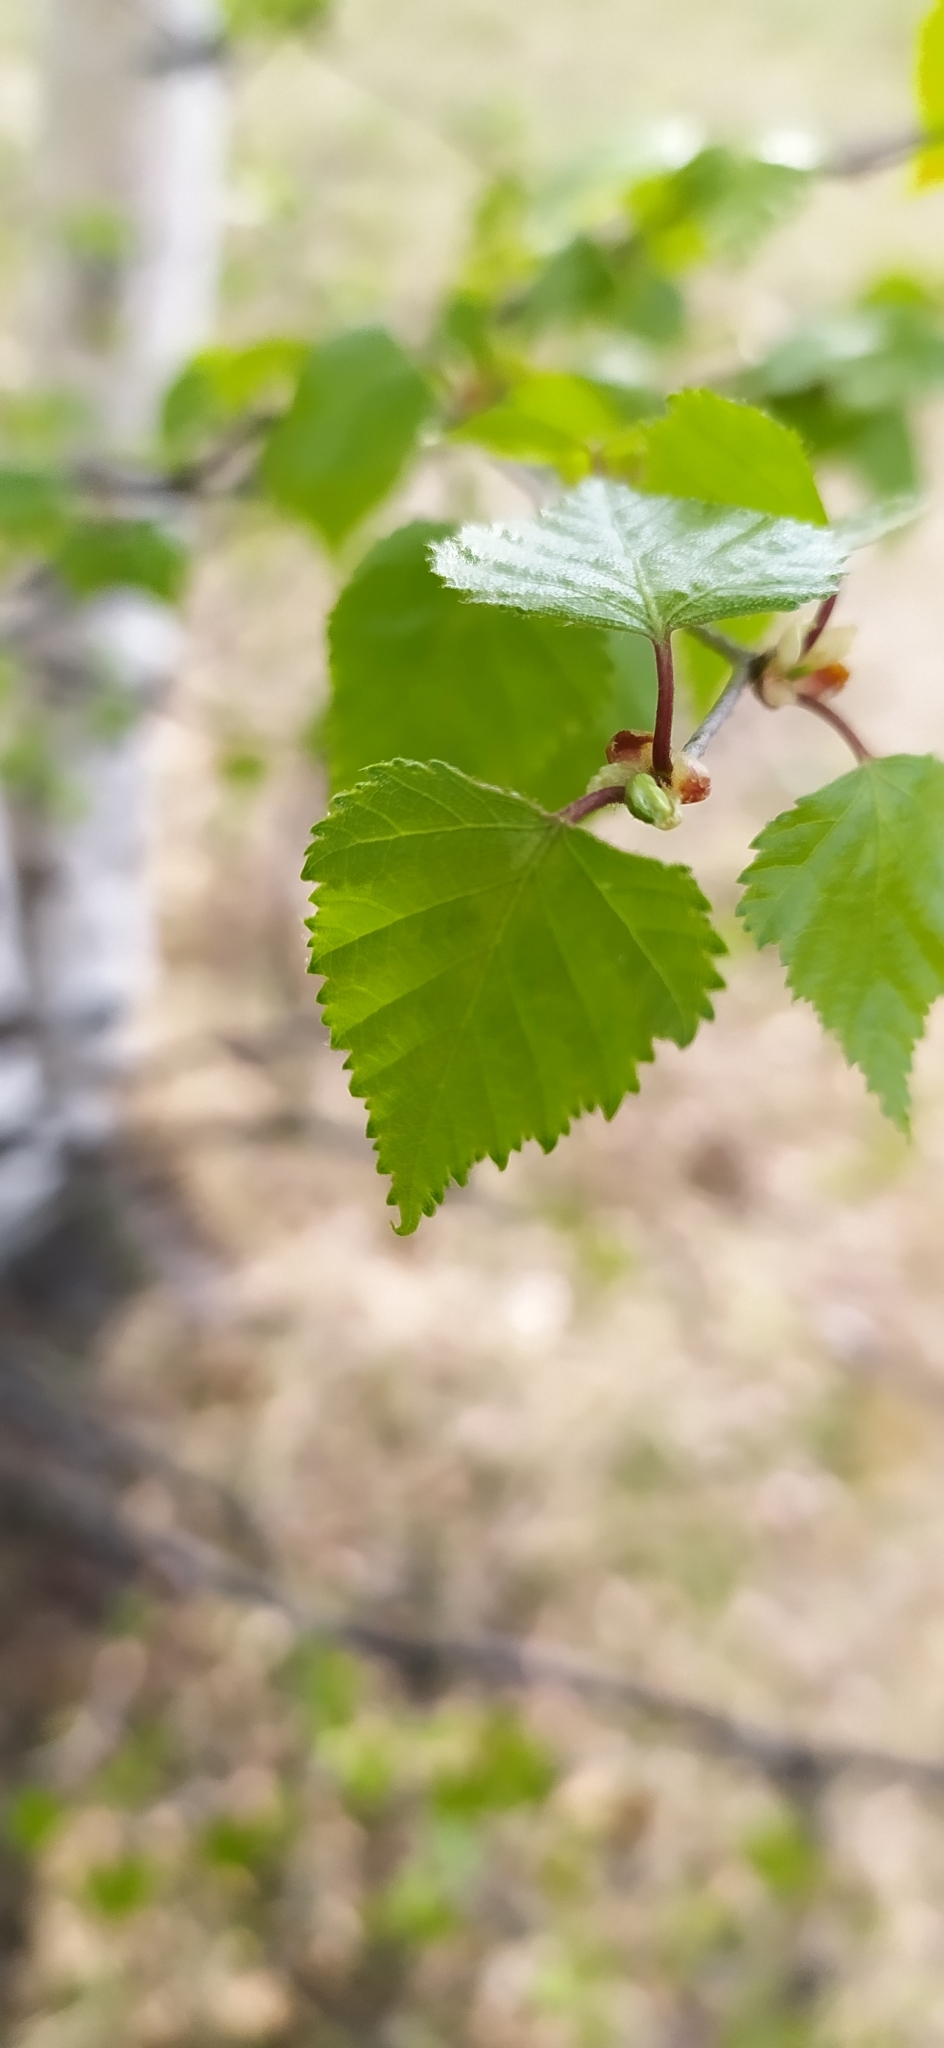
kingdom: Plantae
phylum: Tracheophyta
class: Magnoliopsida
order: Fagales
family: Betulaceae
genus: Betula
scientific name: Betula pendula
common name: Silver birch
